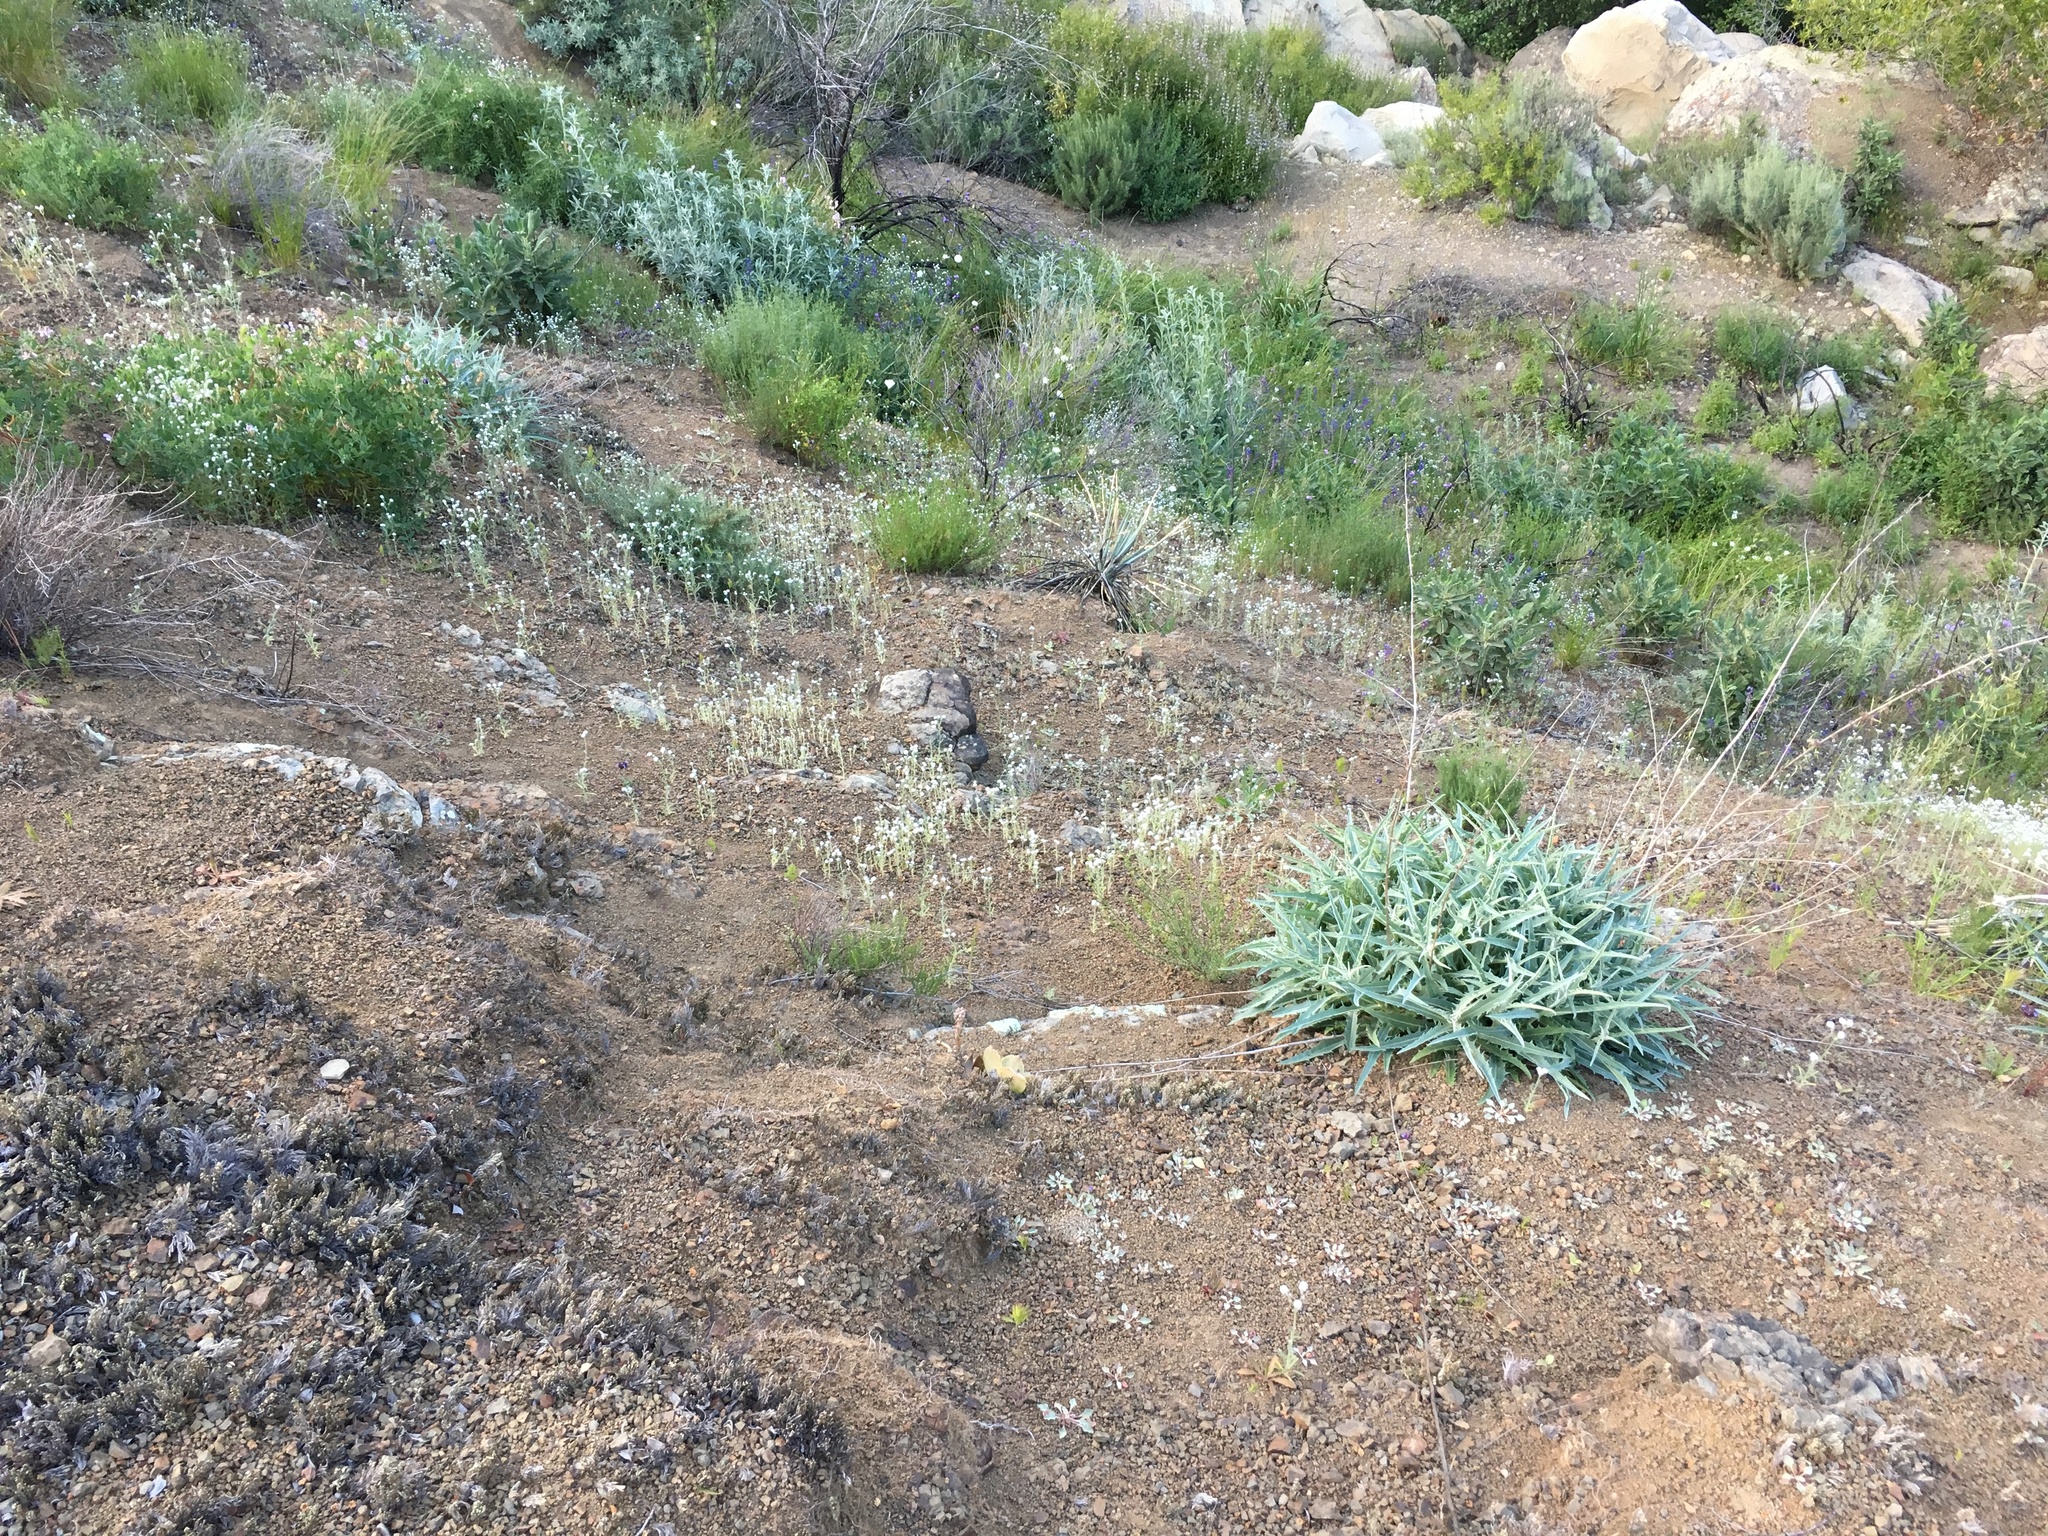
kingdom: Plantae
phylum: Tracheophyta
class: Magnoliopsida
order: Asterales
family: Asteraceae
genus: Stephanomeria
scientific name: Stephanomeria cichoriacea
